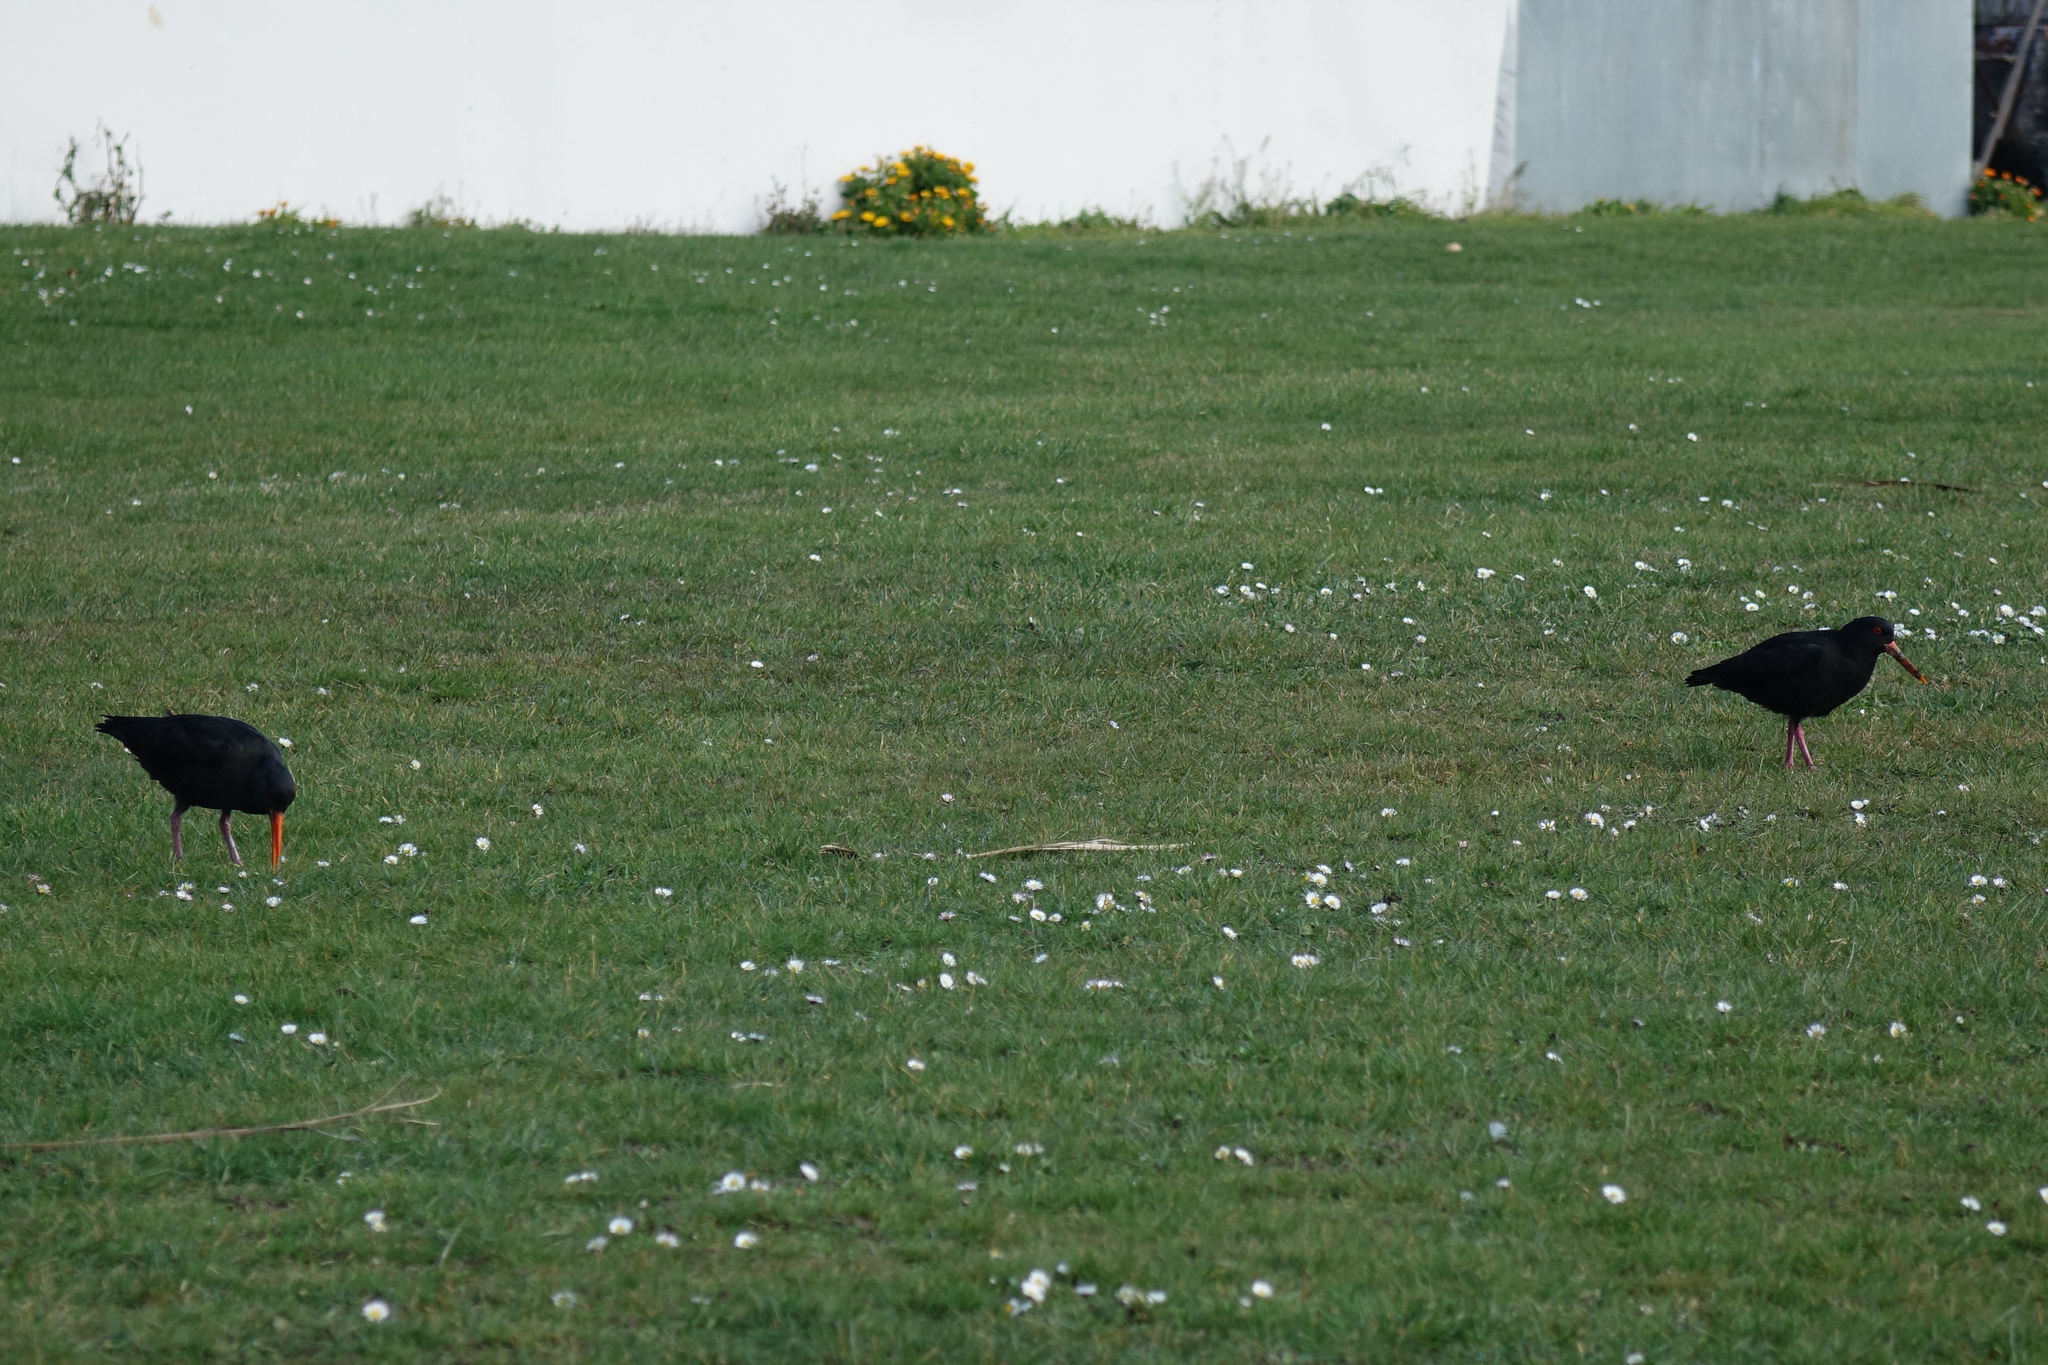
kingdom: Animalia
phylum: Chordata
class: Aves
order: Charadriiformes
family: Haematopodidae
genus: Haematopus
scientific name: Haematopus unicolor
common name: Variable oystercatcher
